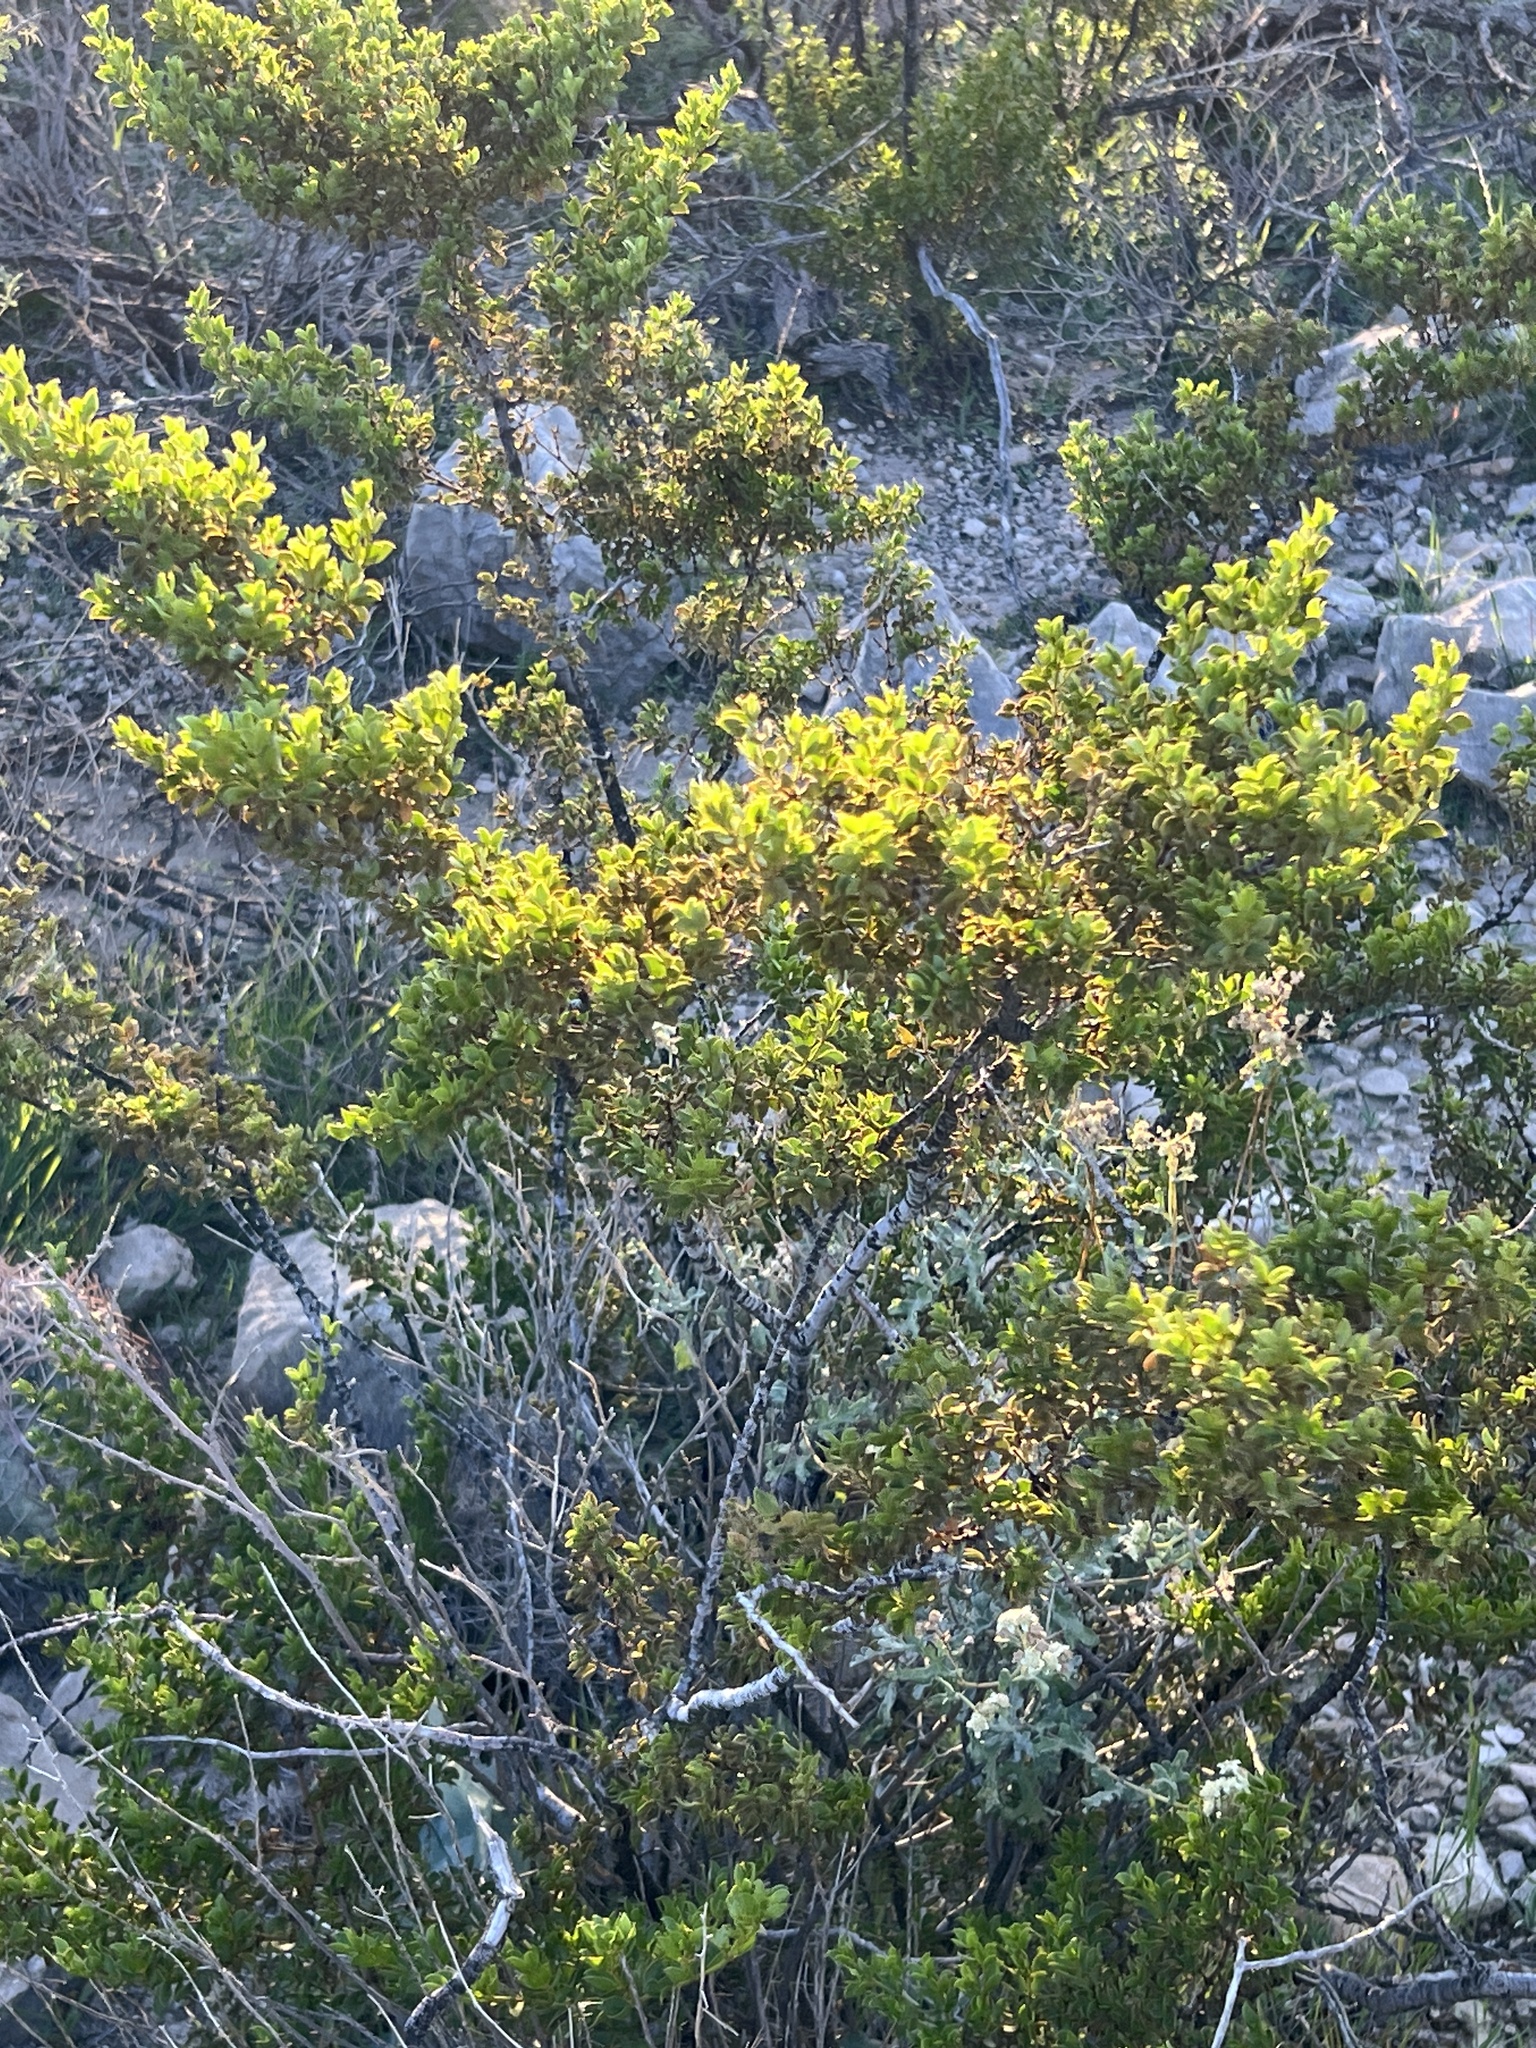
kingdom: Plantae
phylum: Tracheophyta
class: Magnoliopsida
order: Zygophyllales
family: Zygophyllaceae
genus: Larrea
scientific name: Larrea tridentata
